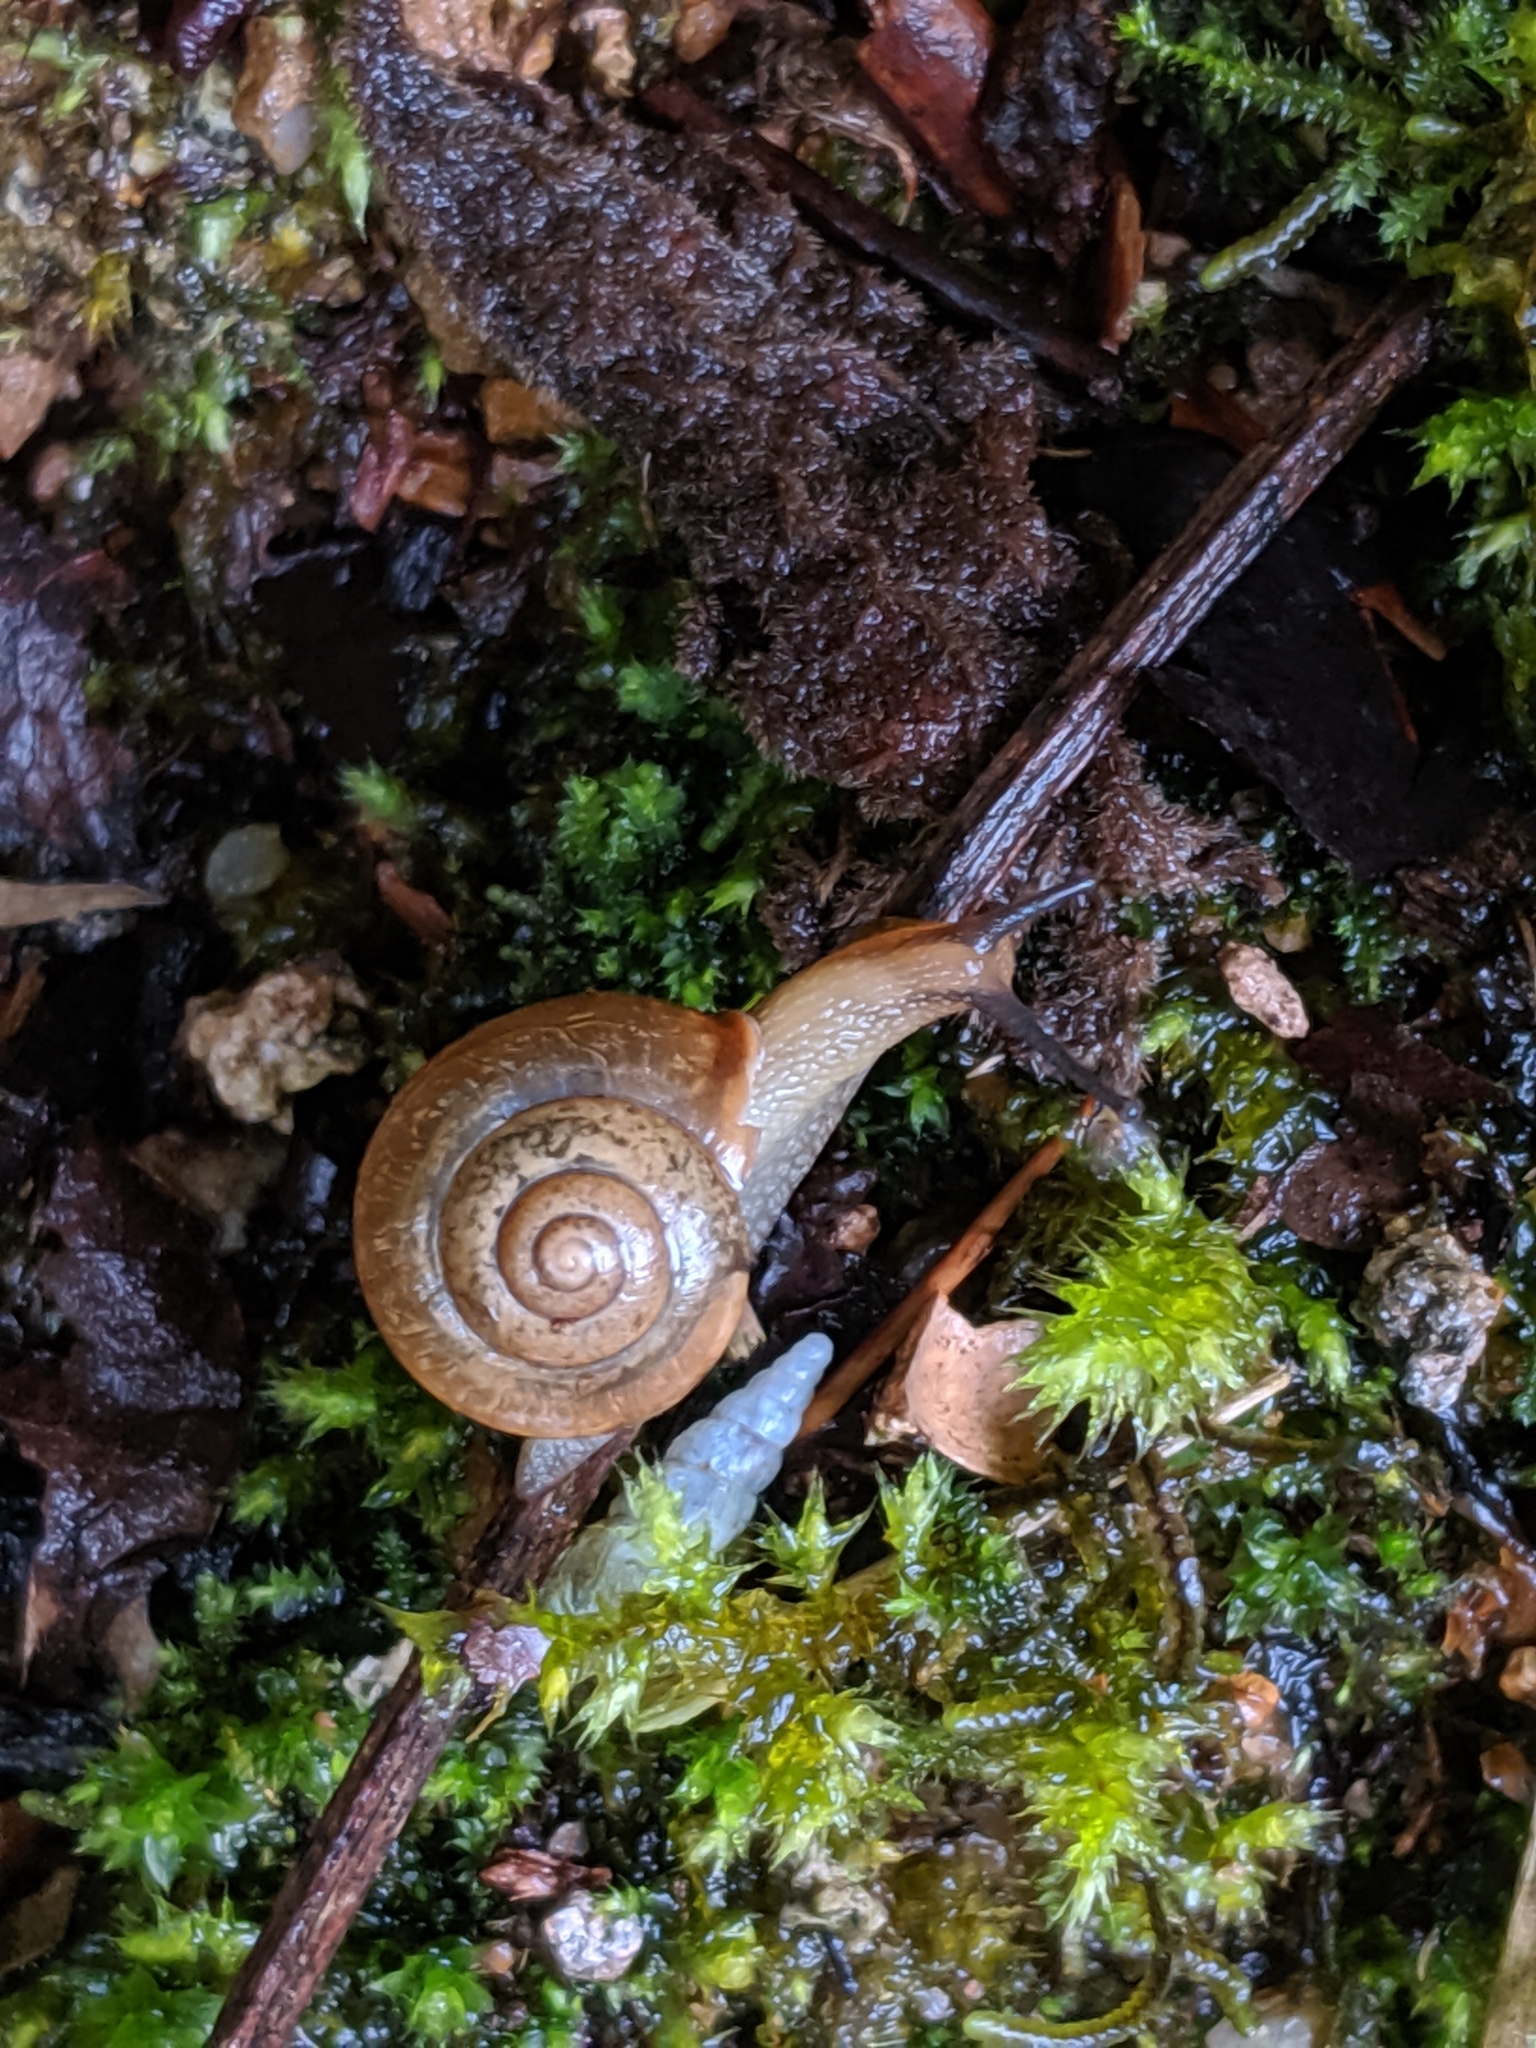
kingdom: Animalia
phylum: Mollusca
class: Gastropoda
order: Stylommatophora
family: Camaenidae
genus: Bradybaena
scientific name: Bradybaena similaris
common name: Asian trampsnail
